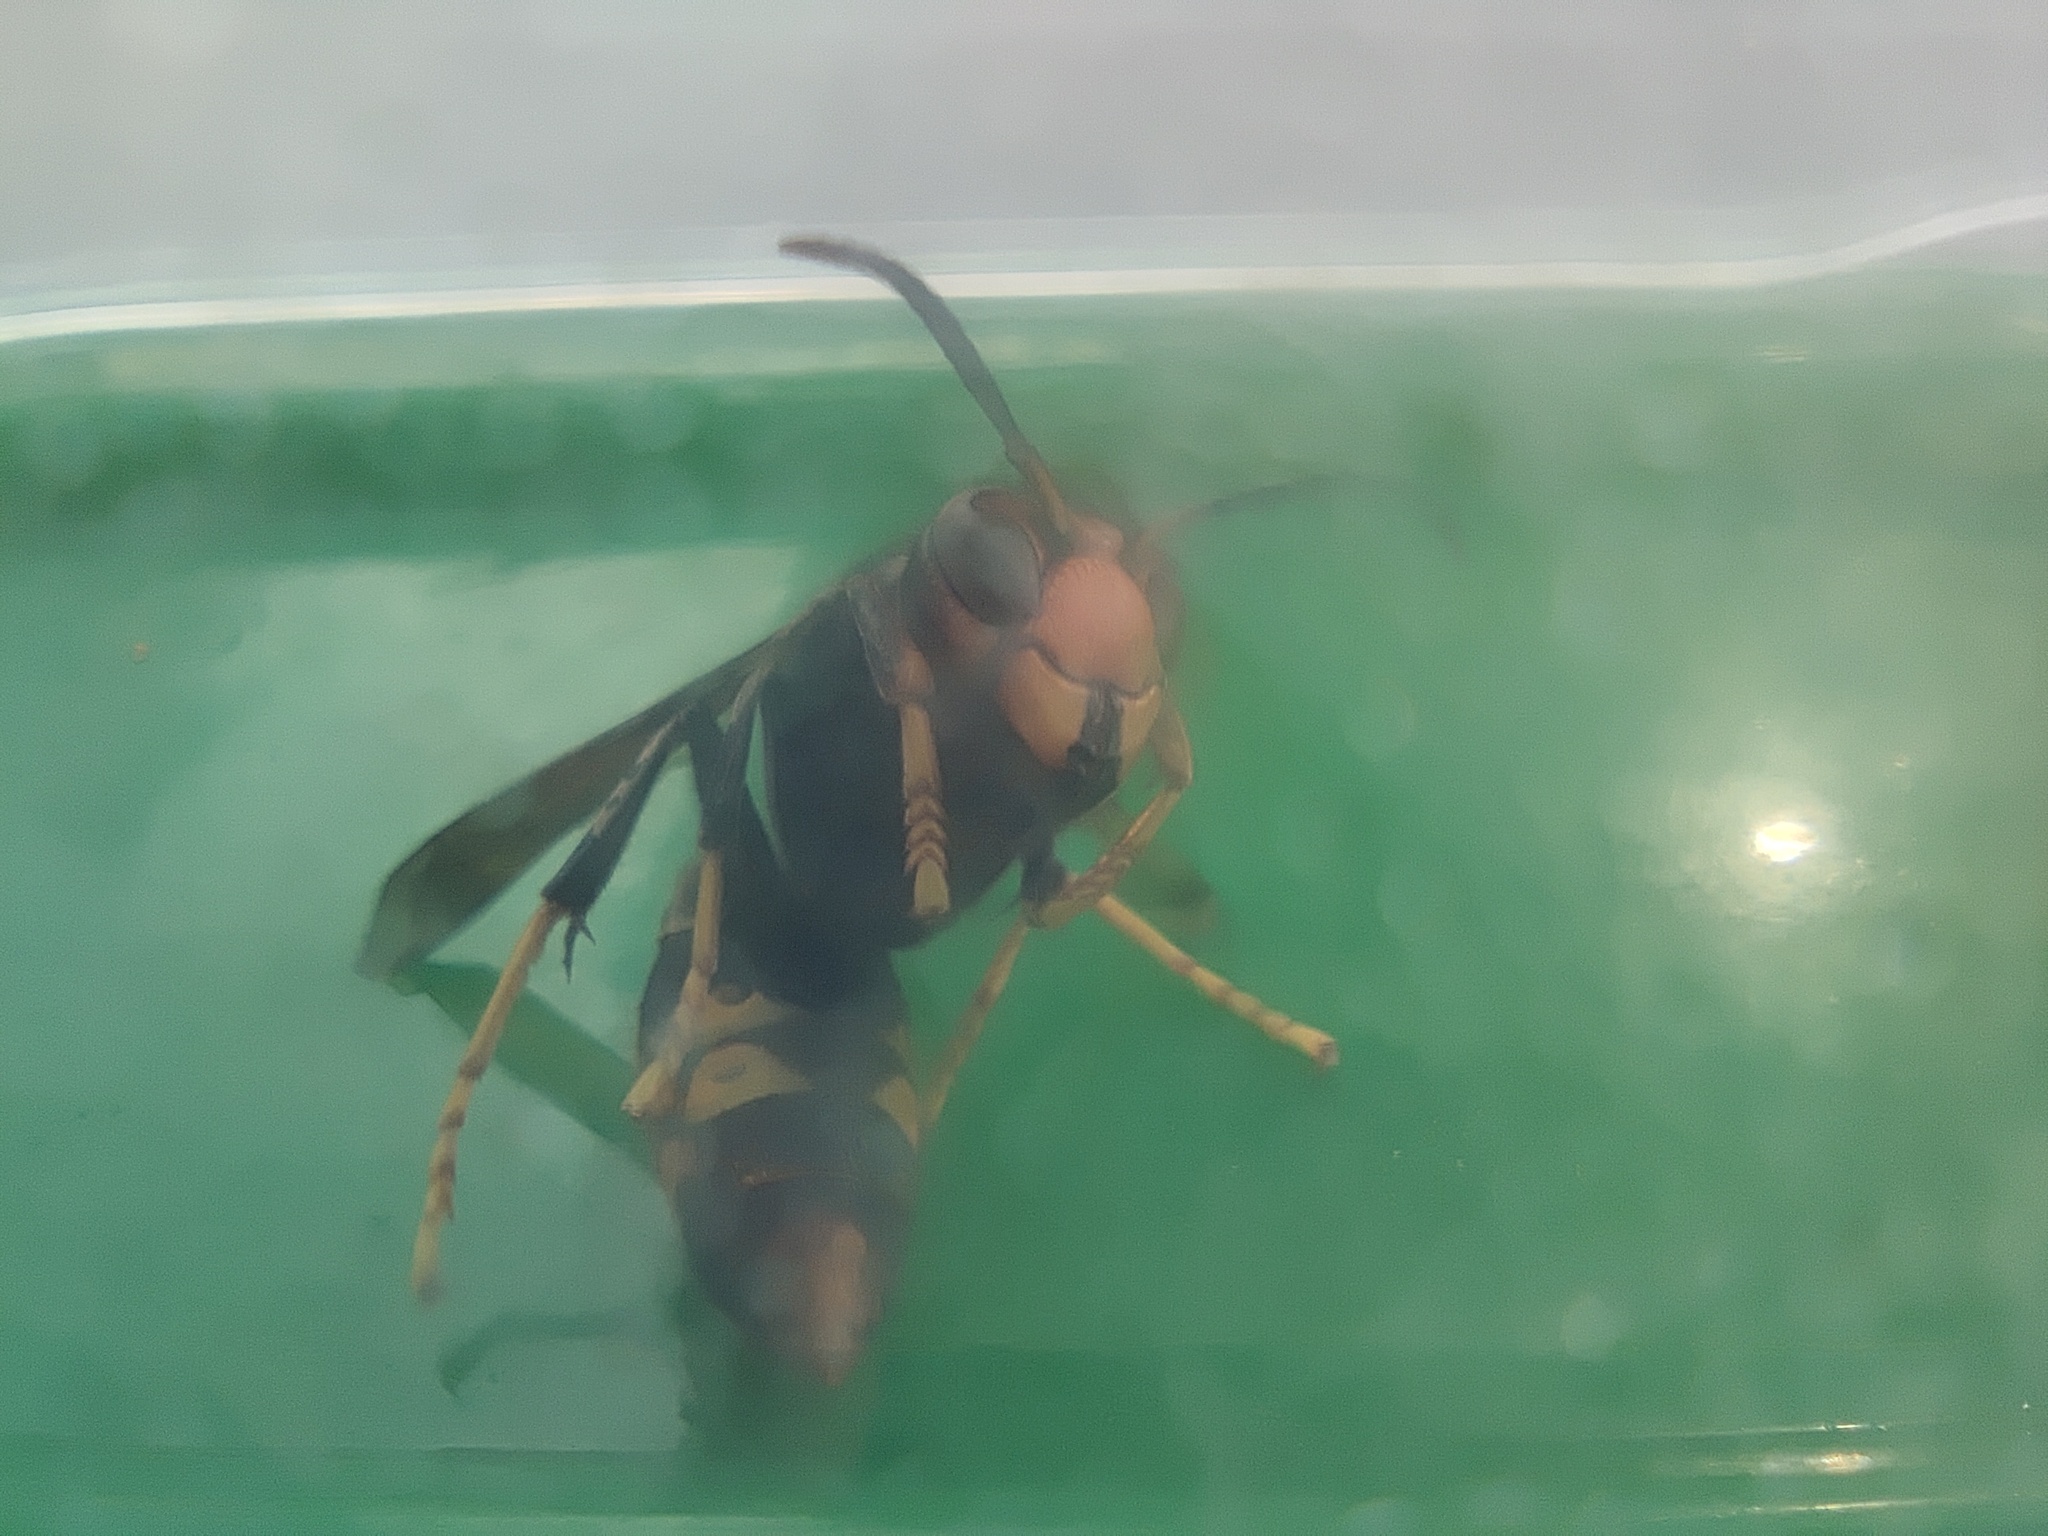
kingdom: Animalia
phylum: Arthropoda
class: Insecta
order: Hymenoptera
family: Vespidae
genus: Vespa
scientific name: Vespa velutina
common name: Asian hornet
